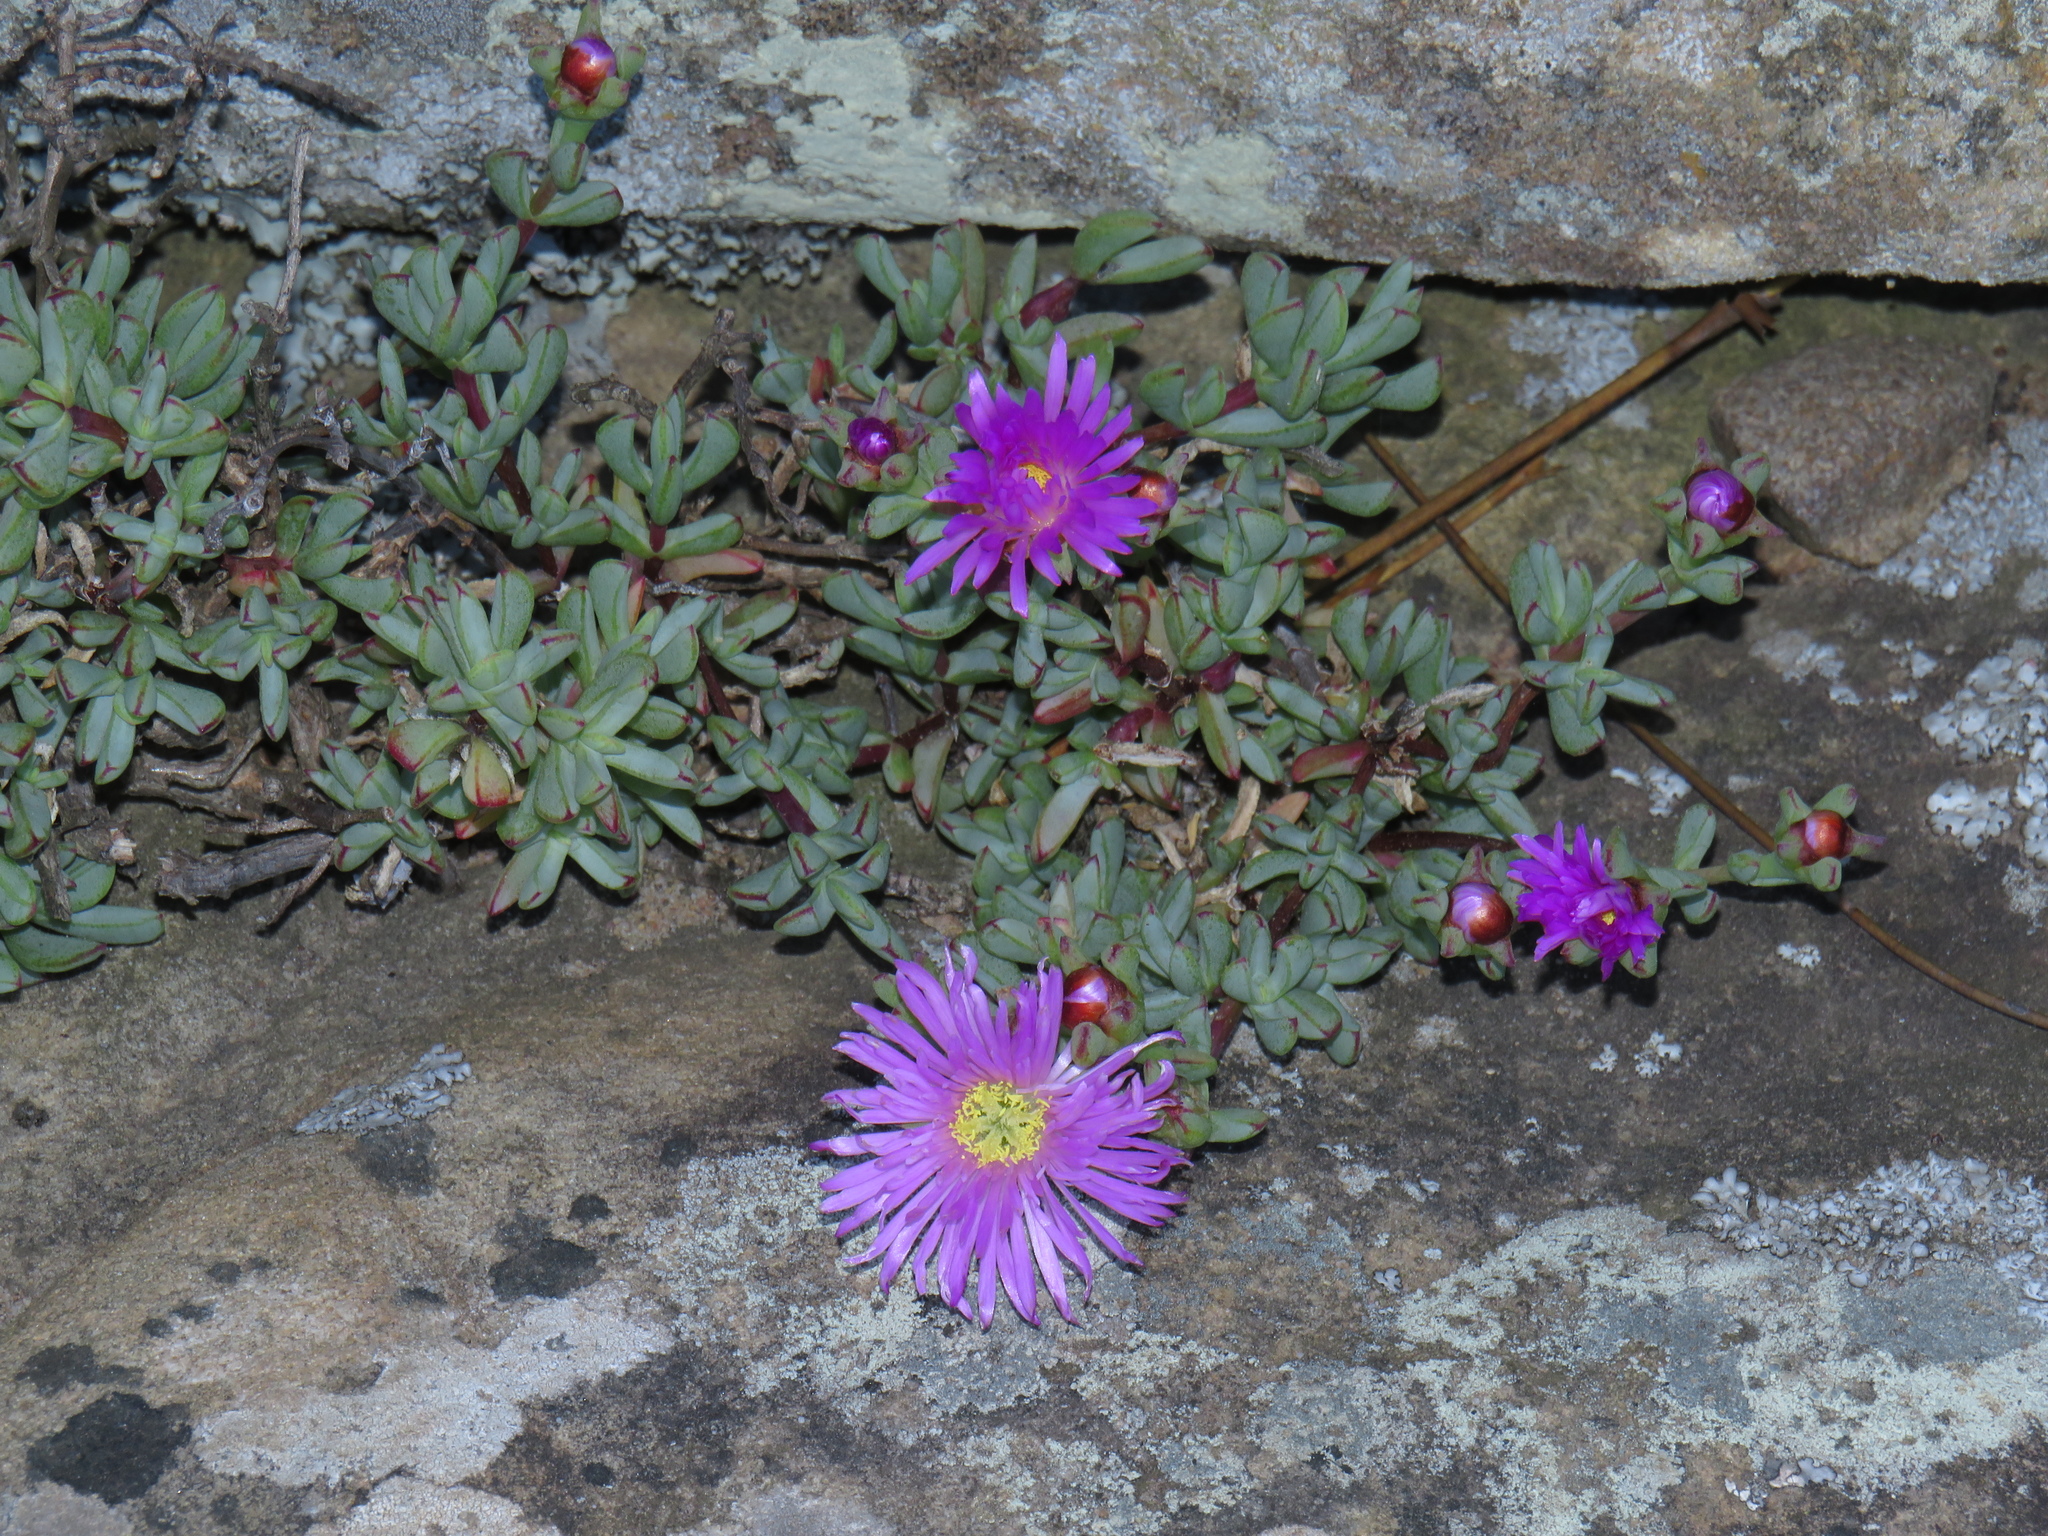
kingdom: Plantae
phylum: Tracheophyta
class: Magnoliopsida
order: Caryophyllales
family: Aizoaceae
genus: Oscularia
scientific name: Oscularia falciformis
